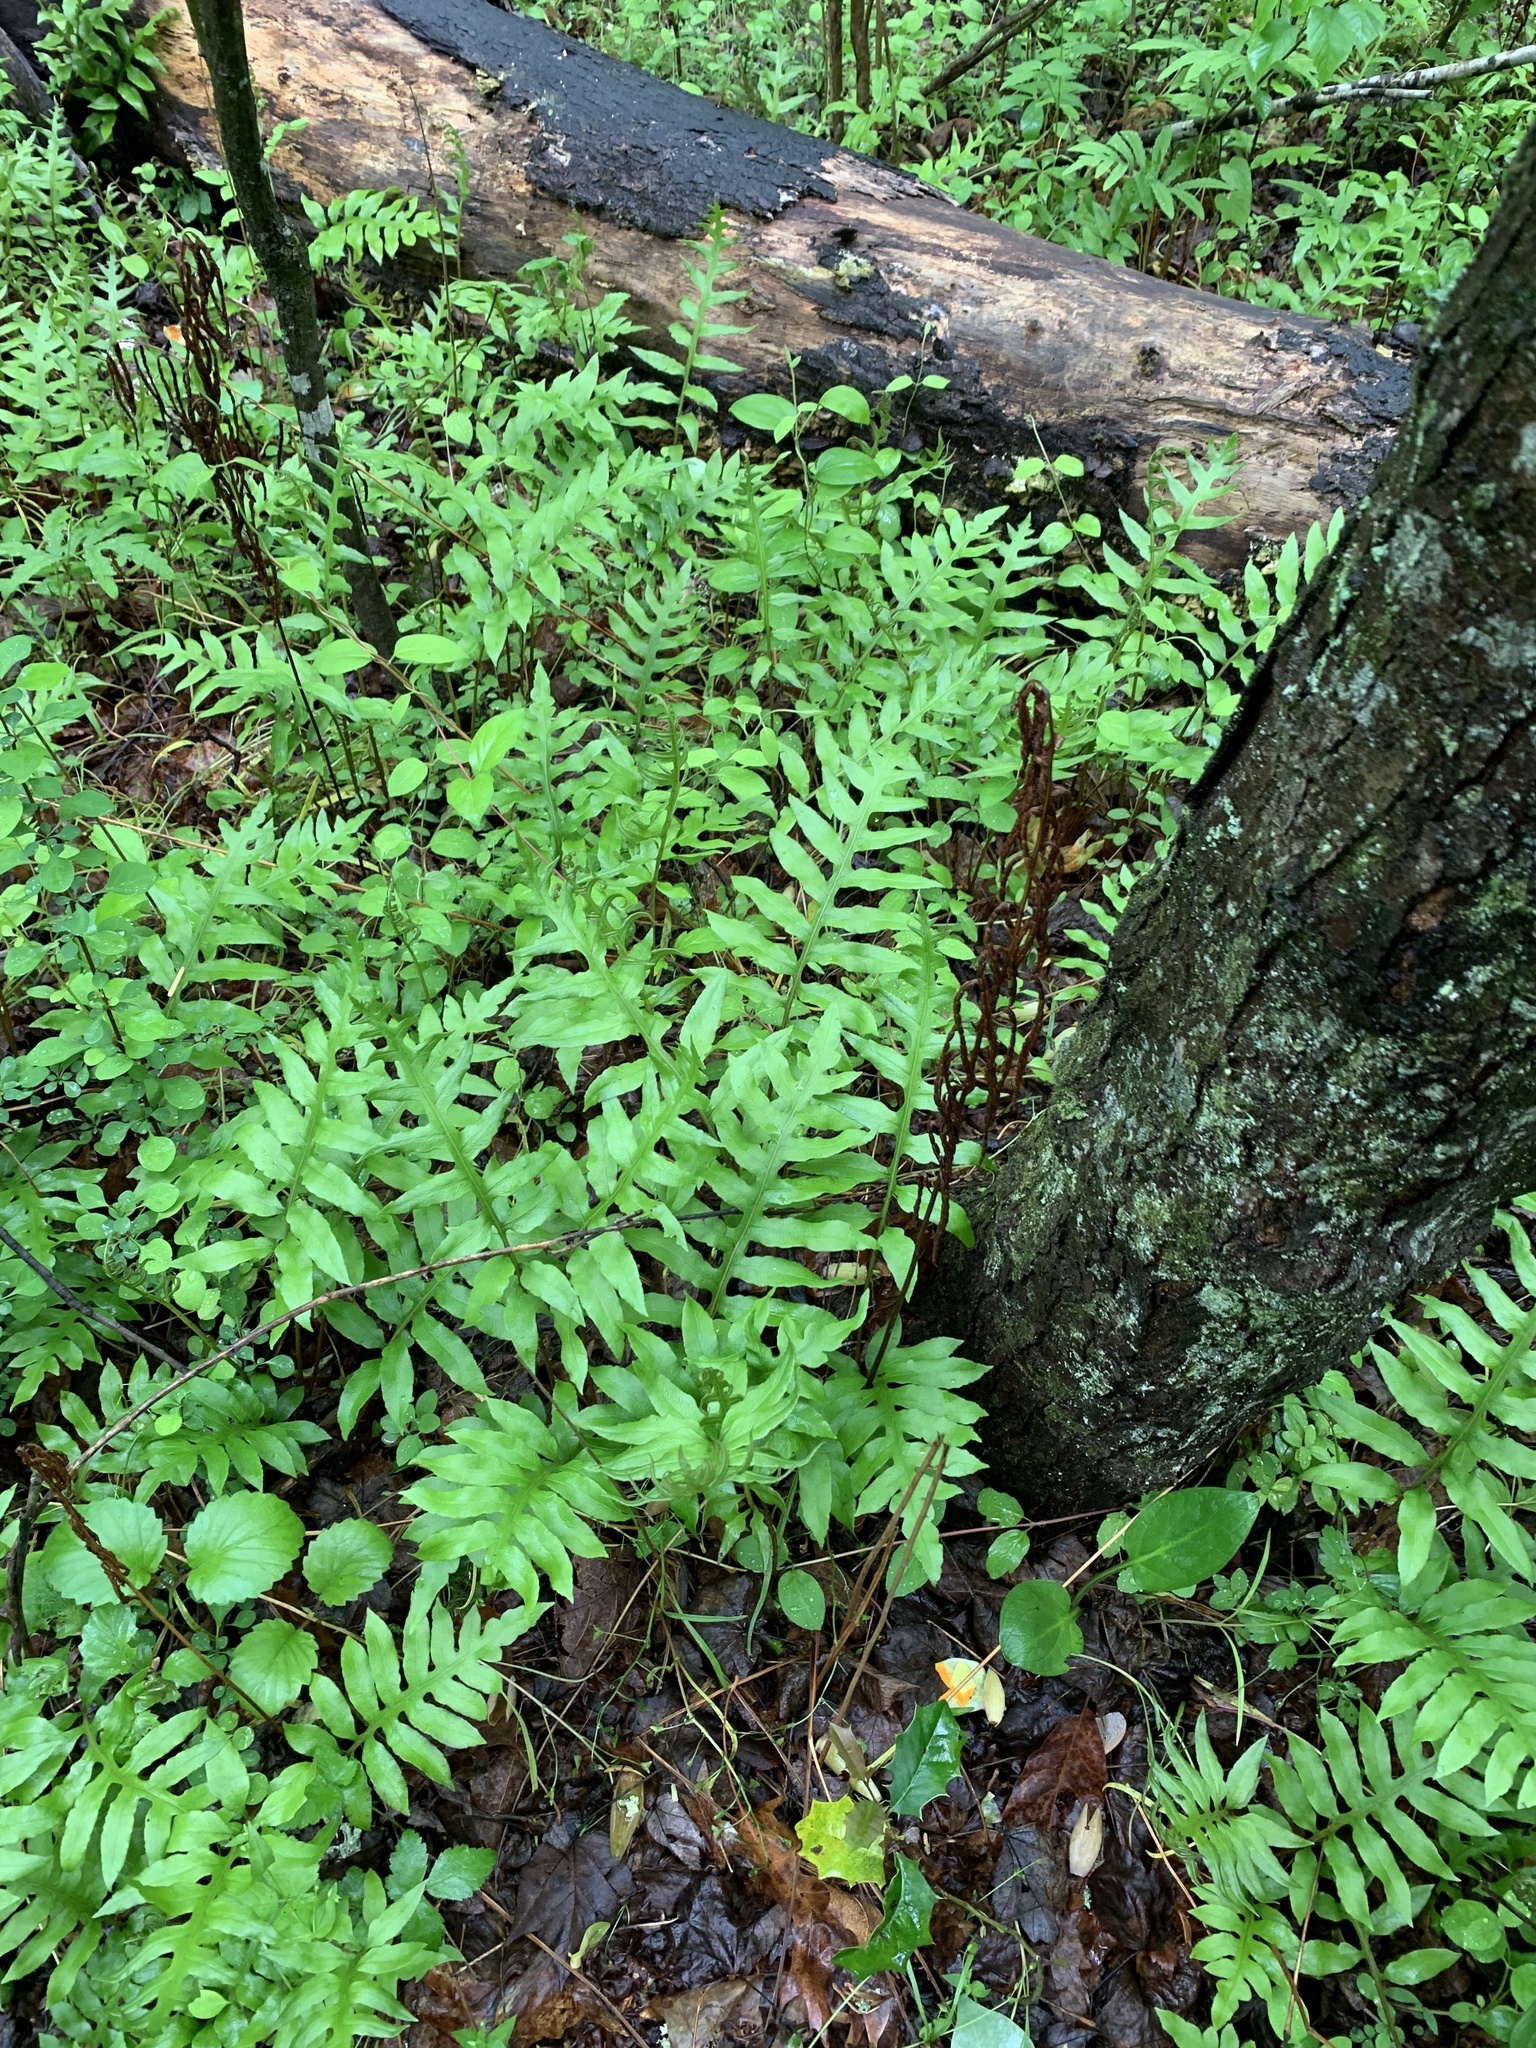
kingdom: Plantae
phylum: Tracheophyta
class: Polypodiopsida
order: Polypodiales
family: Blechnaceae
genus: Lorinseria
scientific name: Lorinseria areolata
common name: Dwarf chain fern
